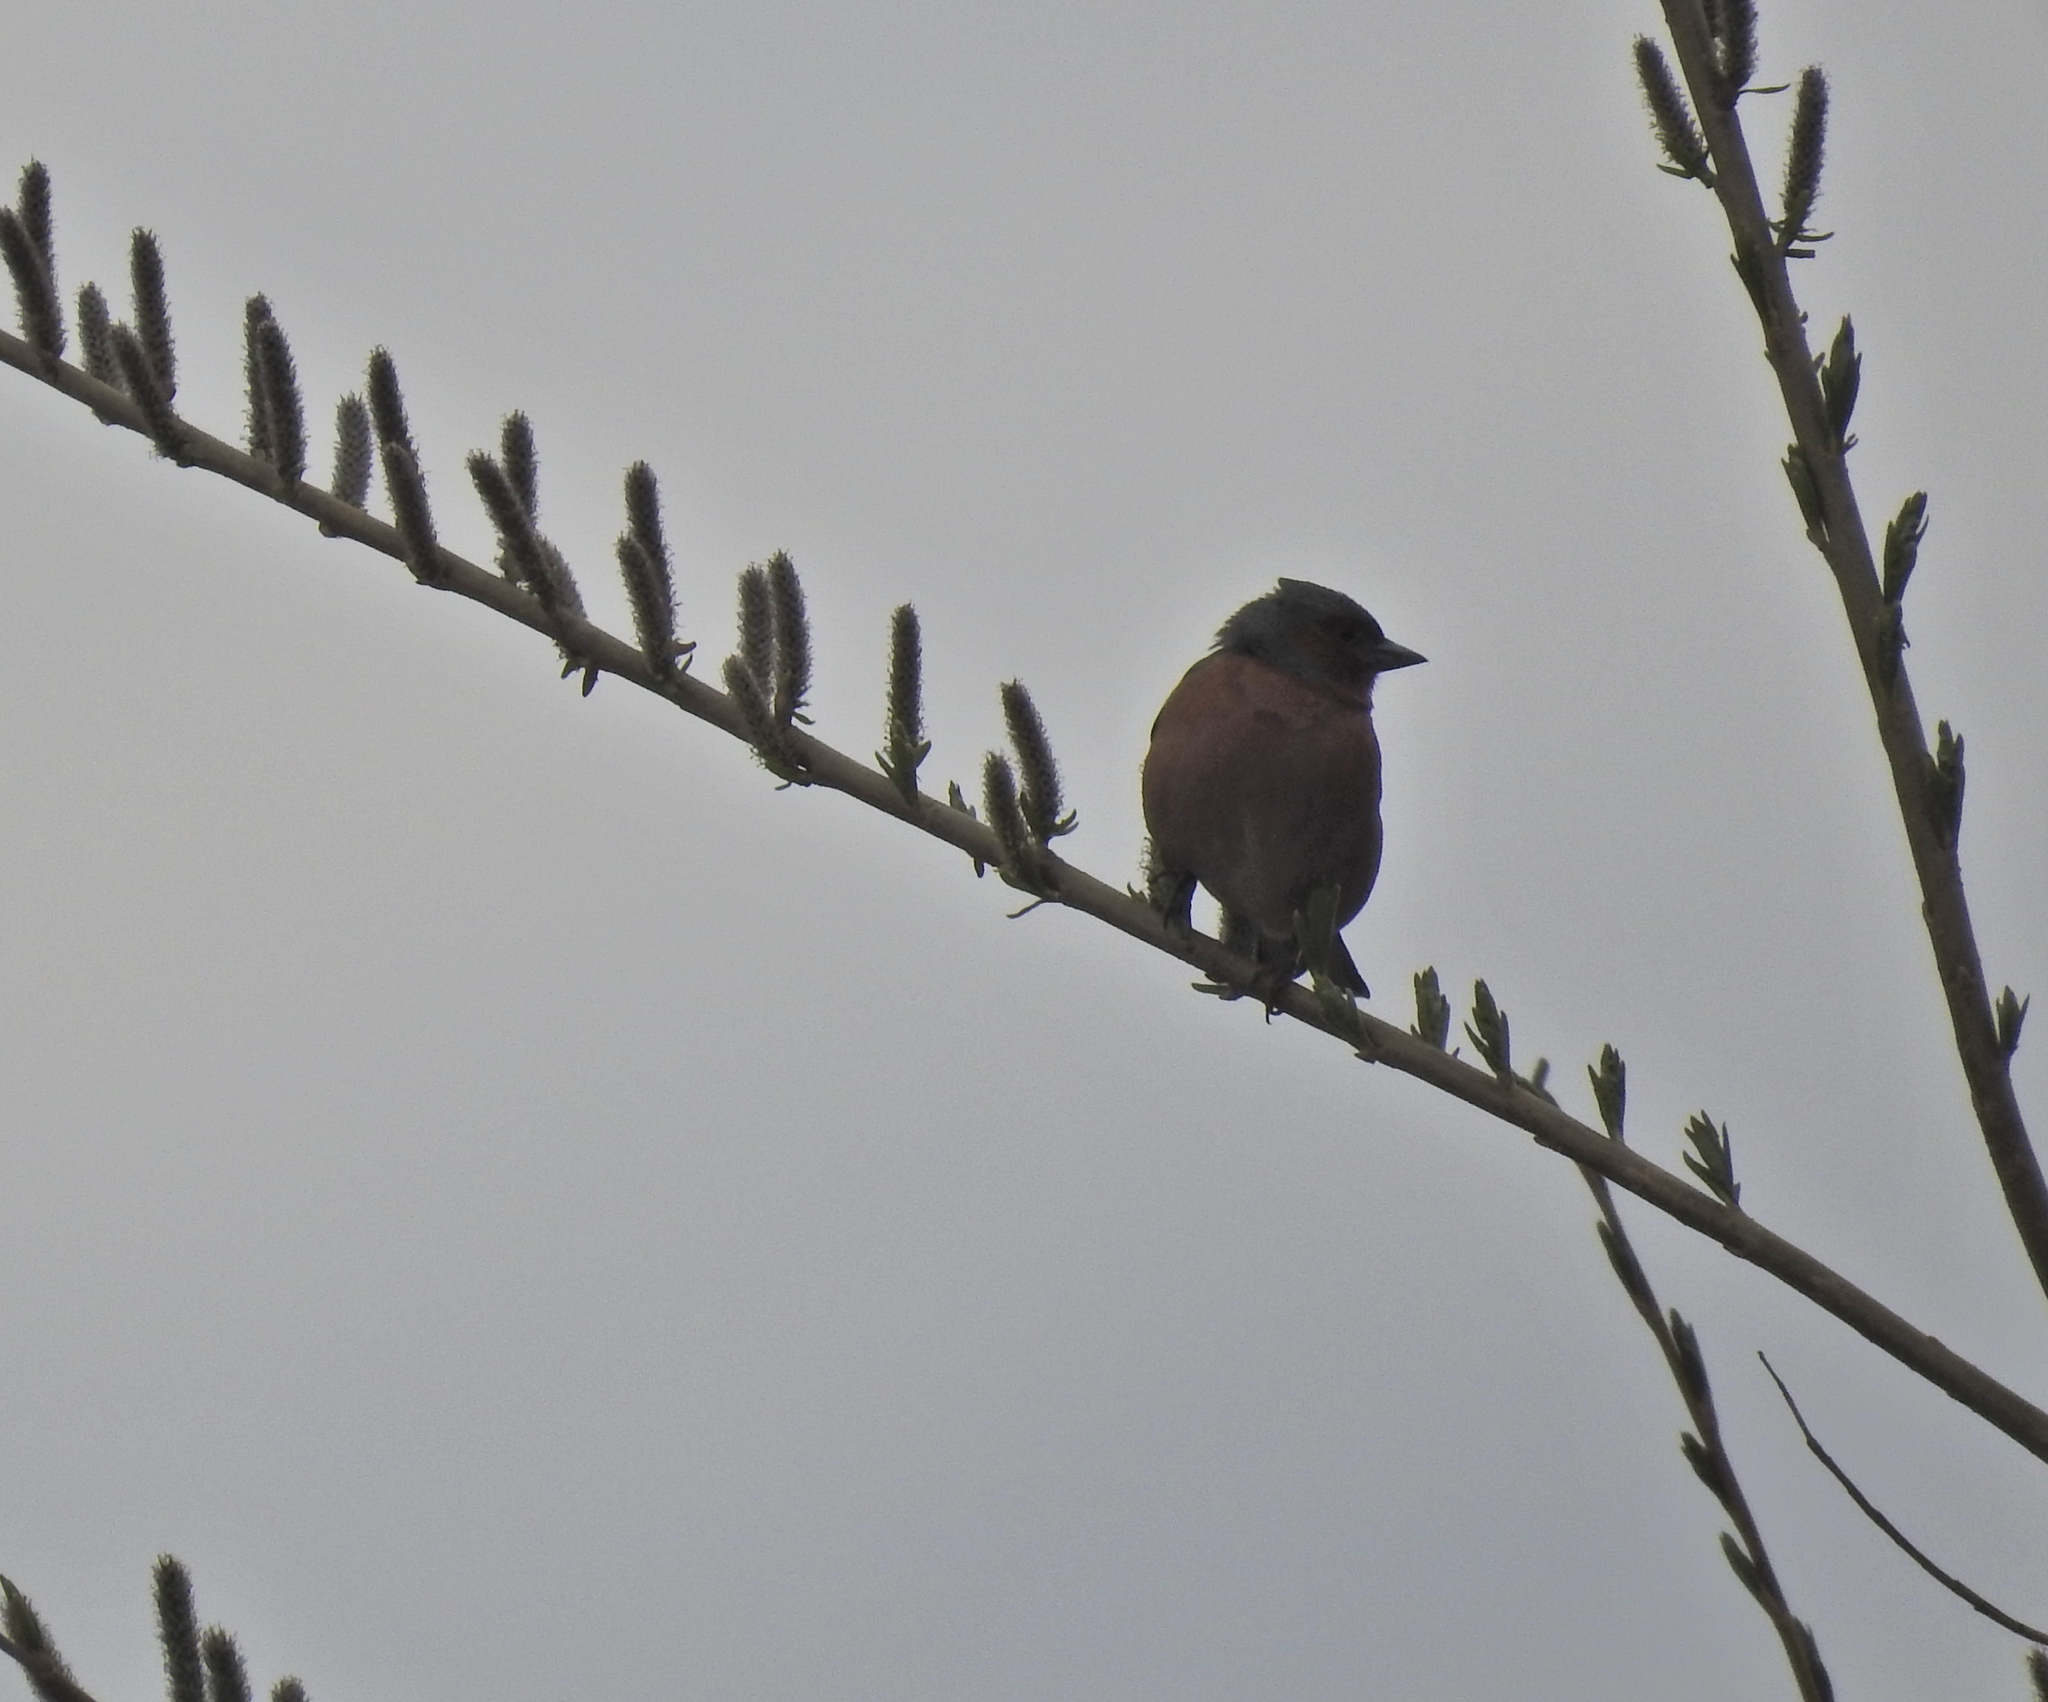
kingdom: Animalia
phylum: Chordata
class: Aves
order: Passeriformes
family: Fringillidae
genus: Fringilla
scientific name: Fringilla coelebs
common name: Common chaffinch
